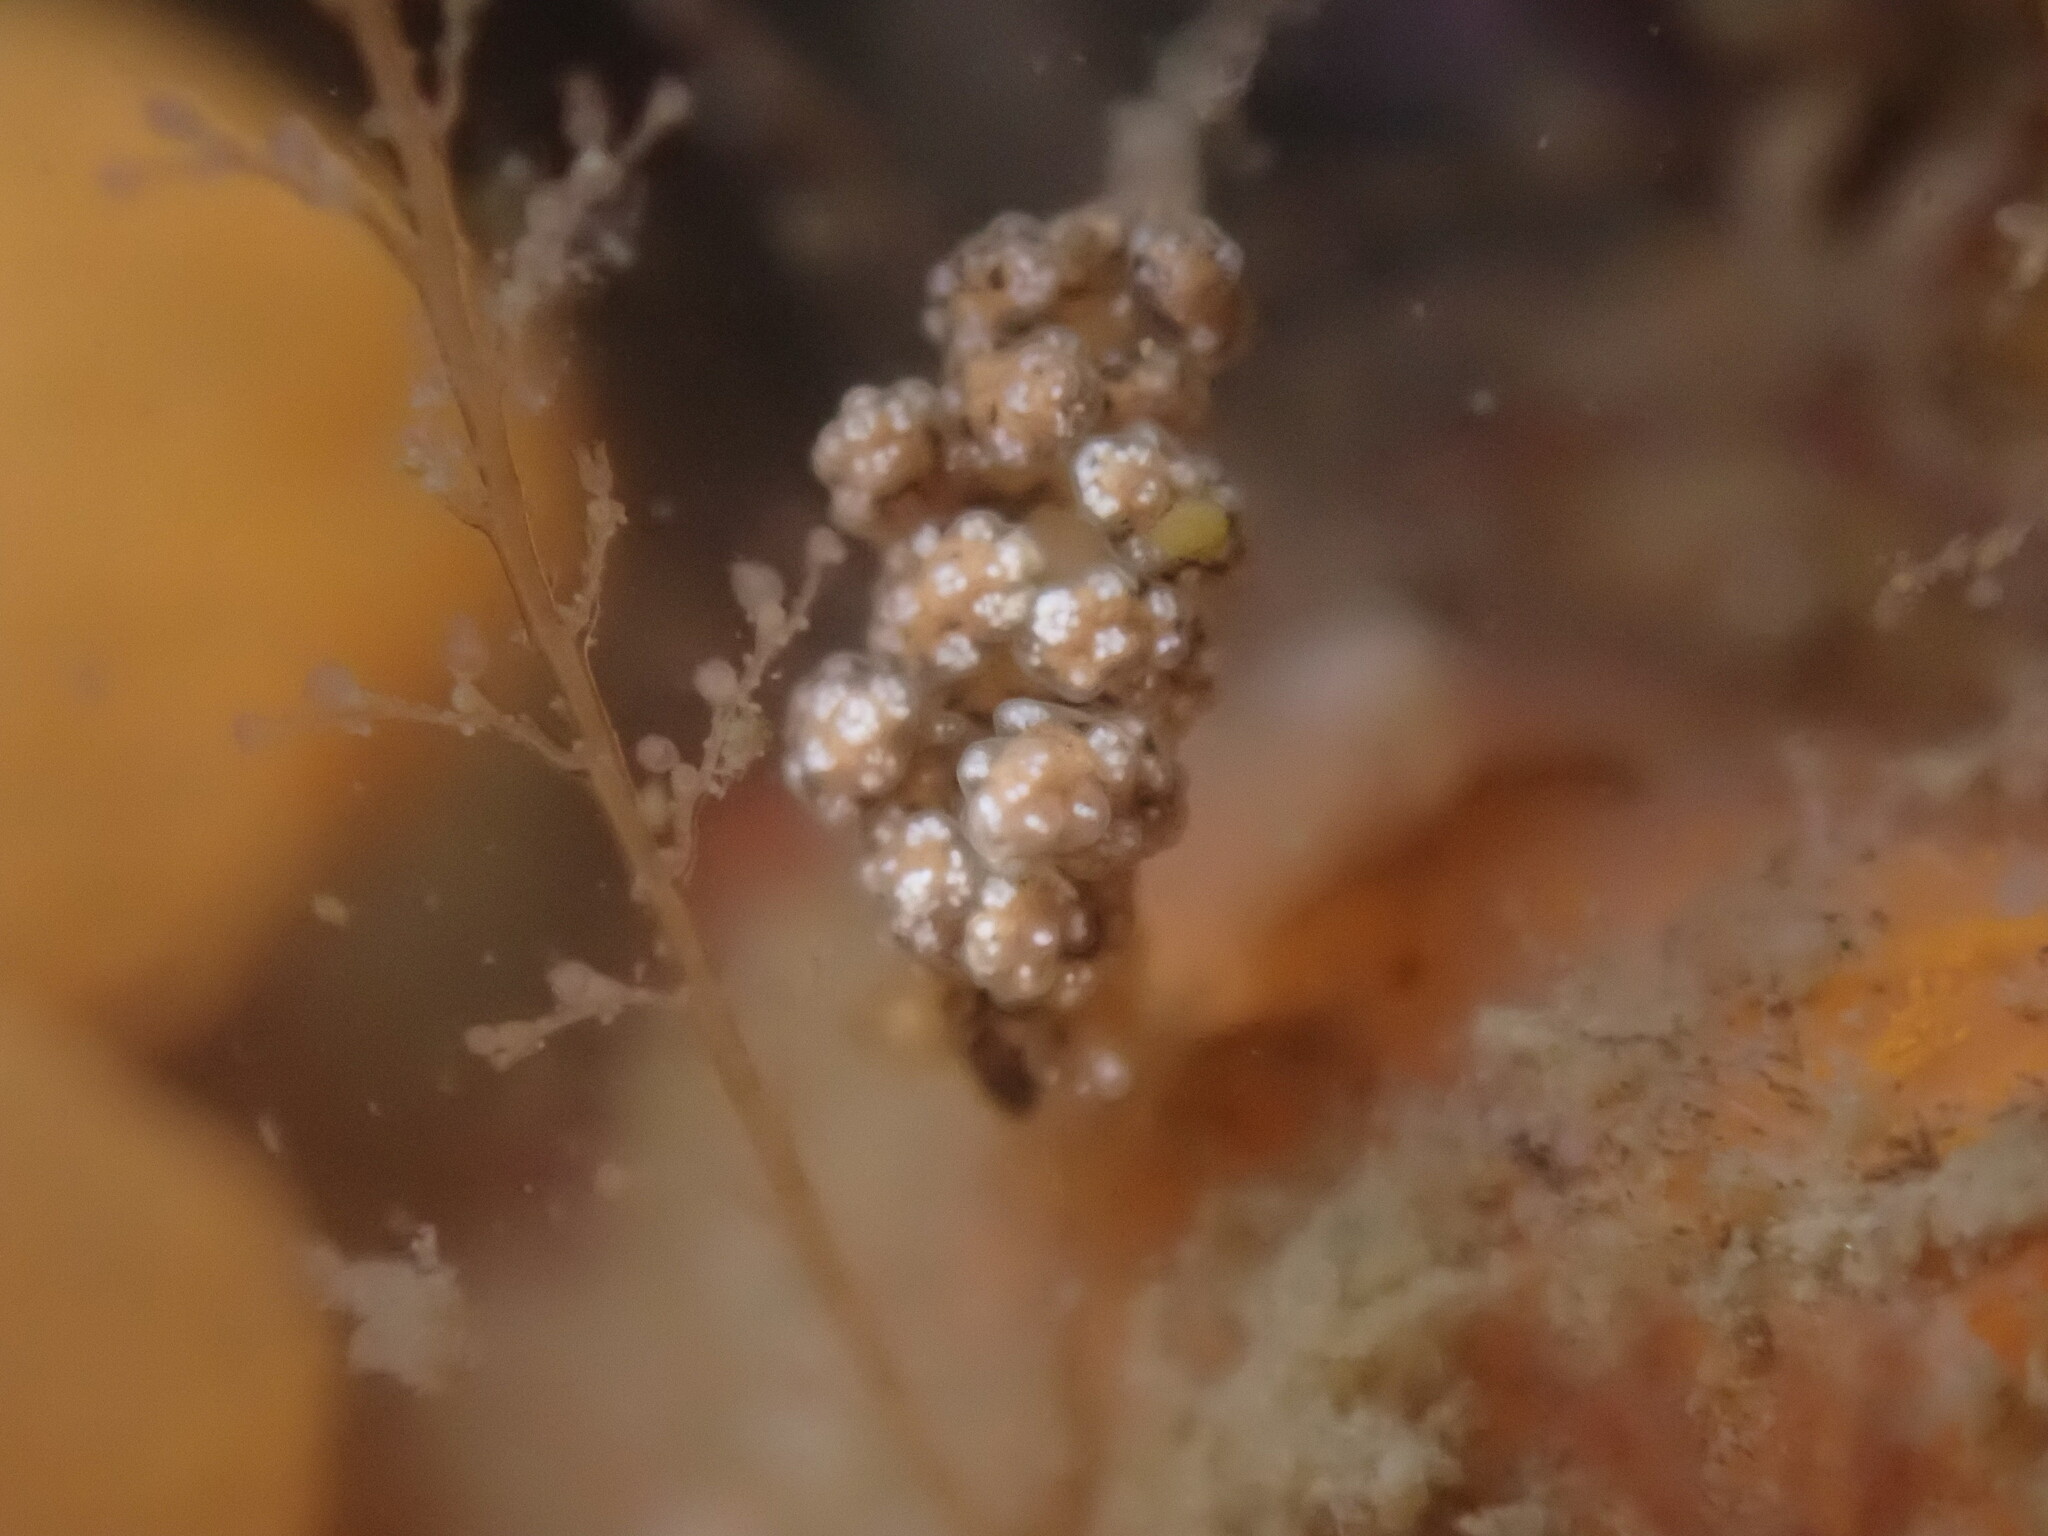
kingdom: Animalia
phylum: Mollusca
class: Gastropoda
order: Nudibranchia
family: Dotidae
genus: Doto
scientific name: Doto kya
